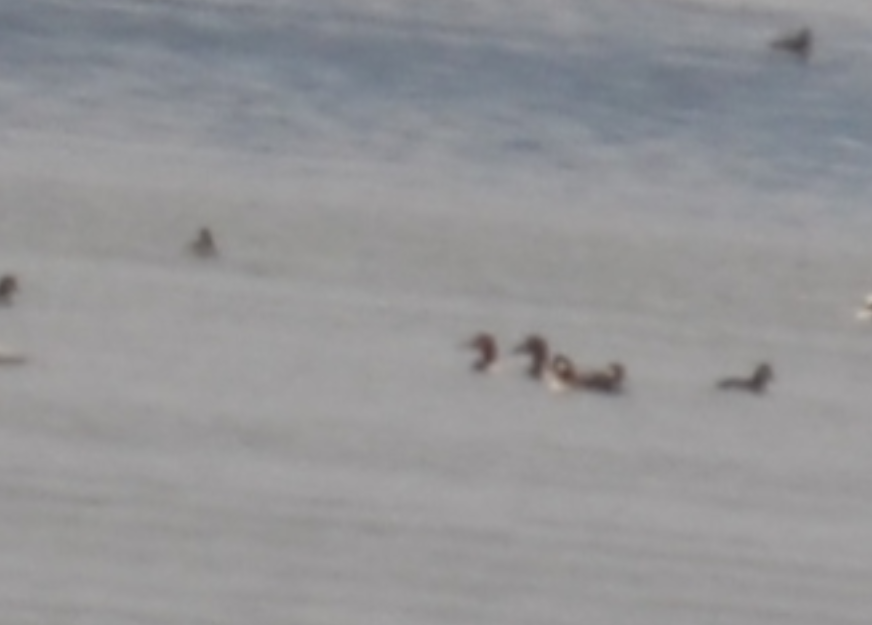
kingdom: Animalia
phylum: Chordata
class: Aves
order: Anseriformes
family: Anatidae
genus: Aythya
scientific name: Aythya valisineria
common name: Canvasback
